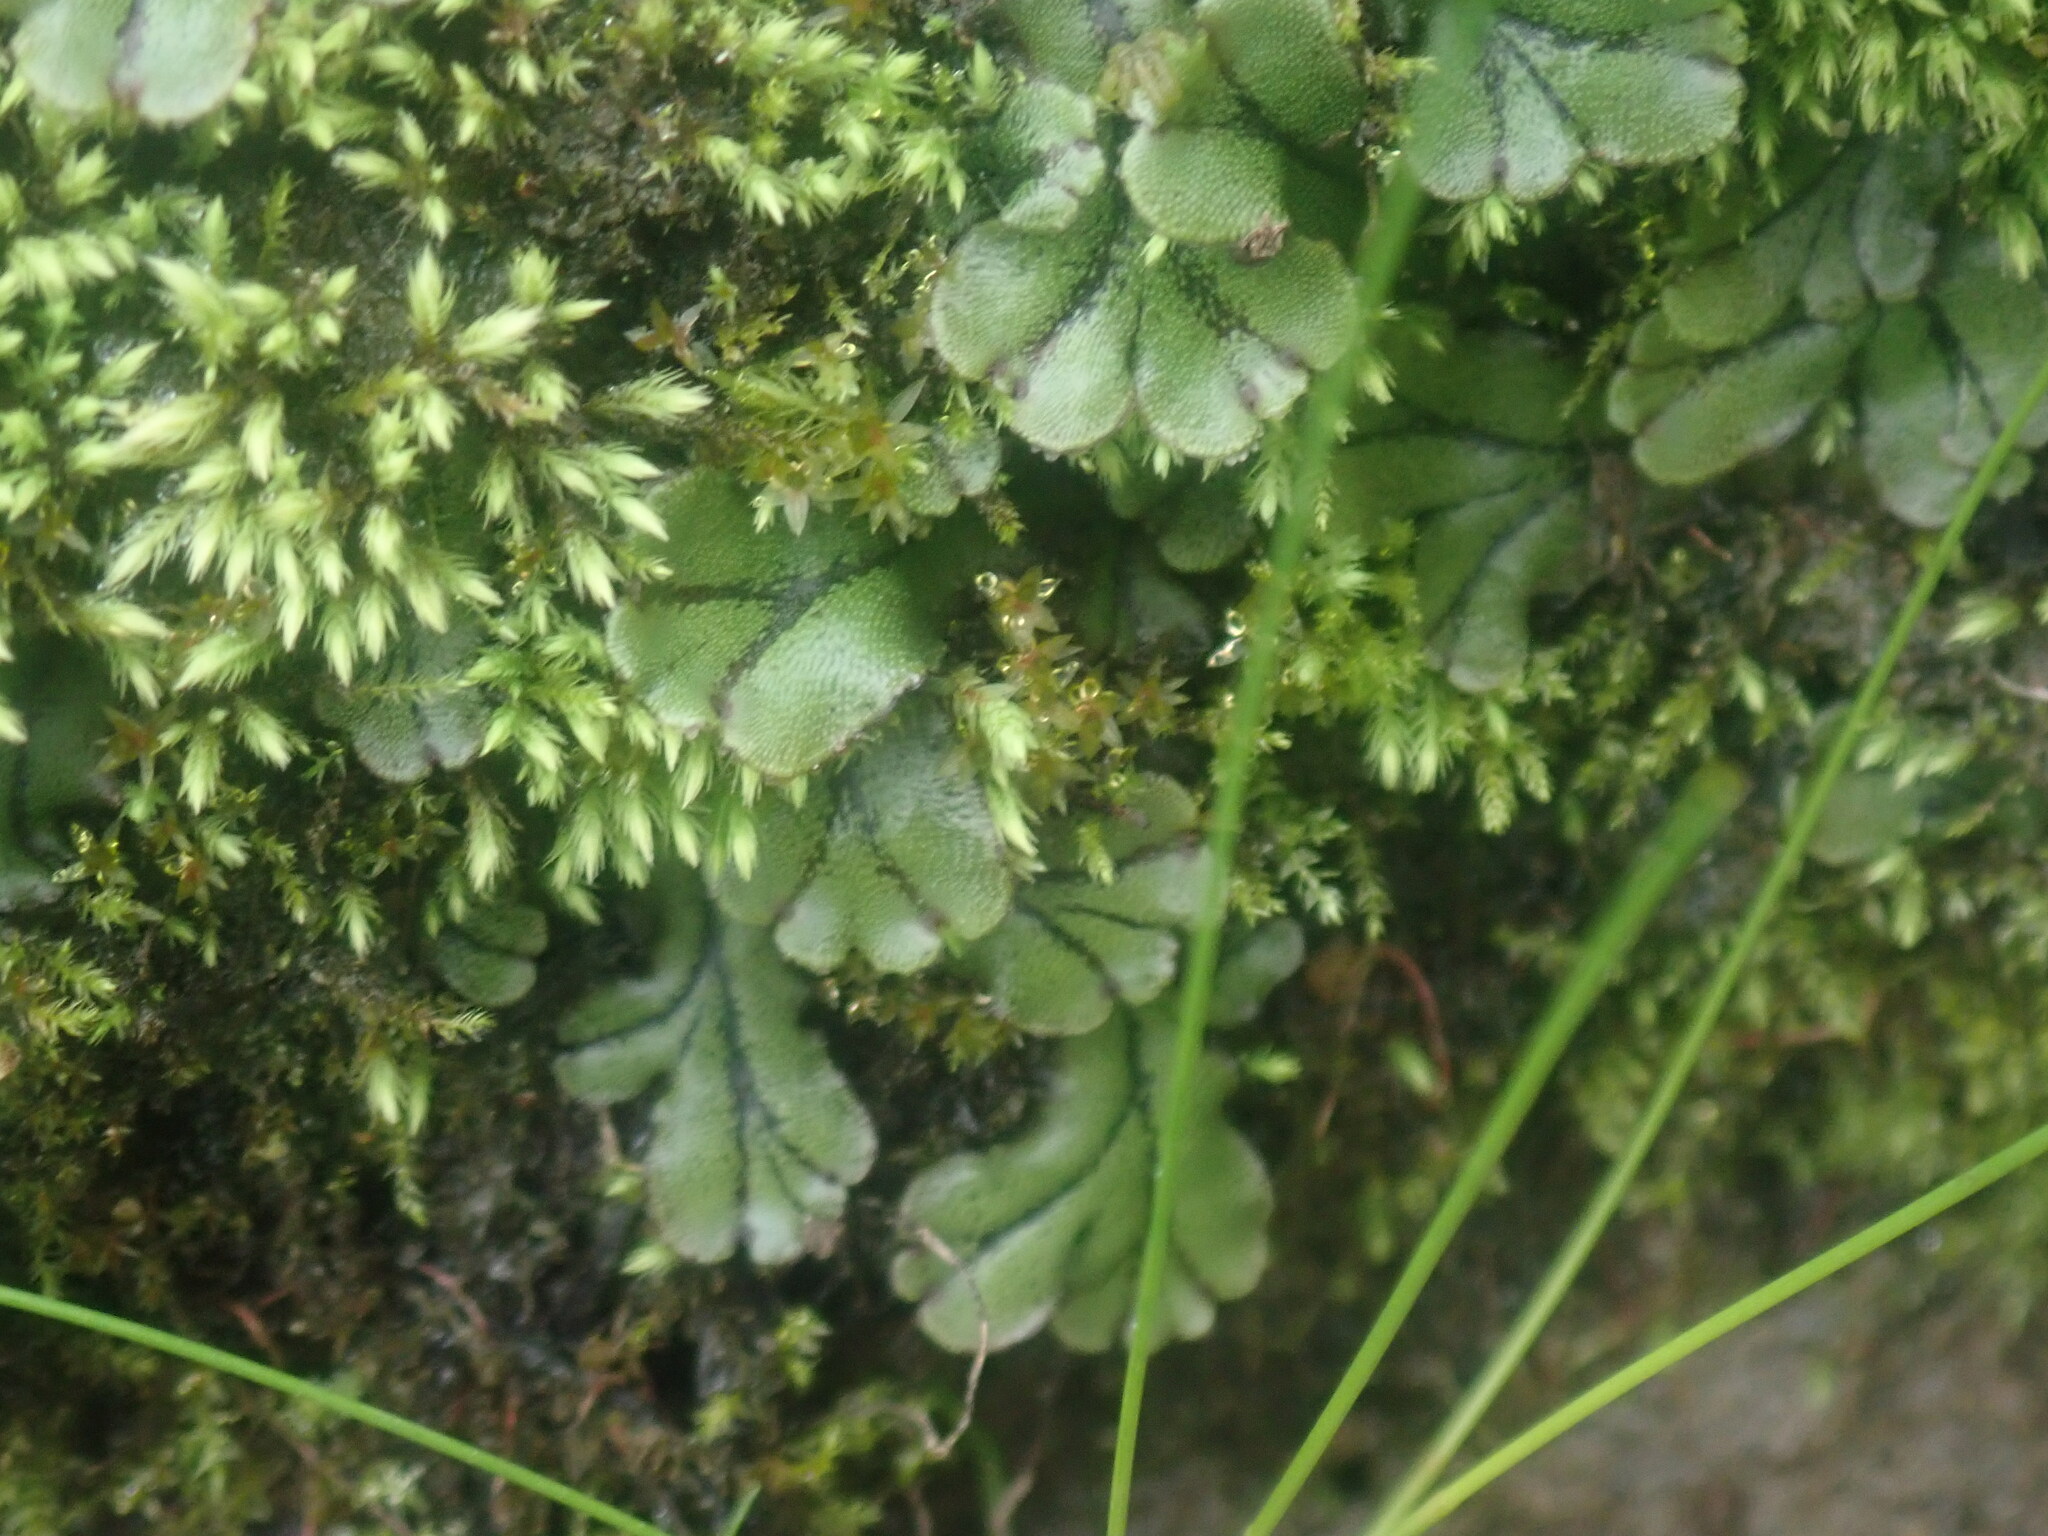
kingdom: Plantae
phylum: Marchantiophyta
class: Marchantiopsida
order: Marchantiales
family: Marchantiaceae
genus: Marchantia
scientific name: Marchantia polymorpha
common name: Common liverwort
